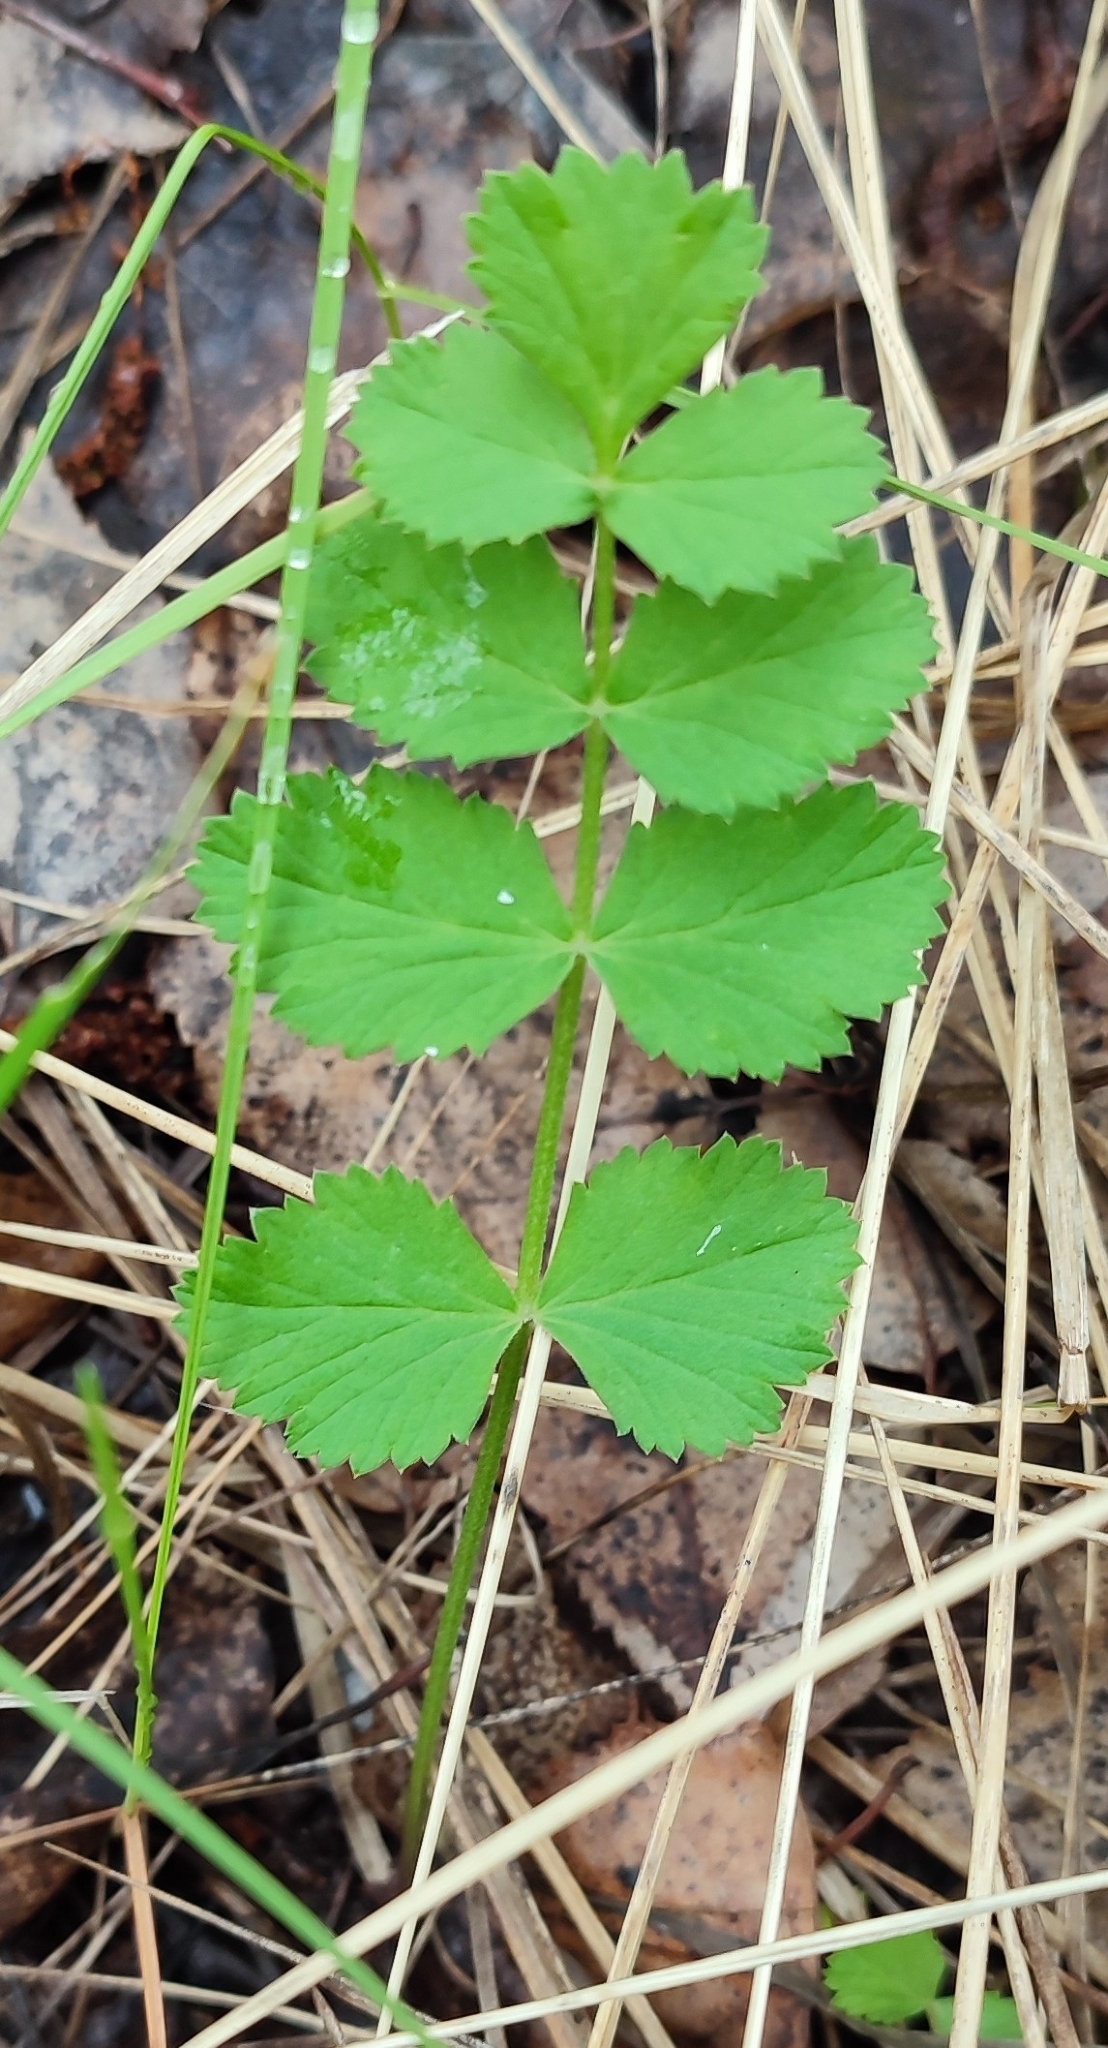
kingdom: Plantae
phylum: Tracheophyta
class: Magnoliopsida
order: Apiales
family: Apiaceae
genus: Pimpinella
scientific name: Pimpinella saxifraga
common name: Burnet-saxifrage
